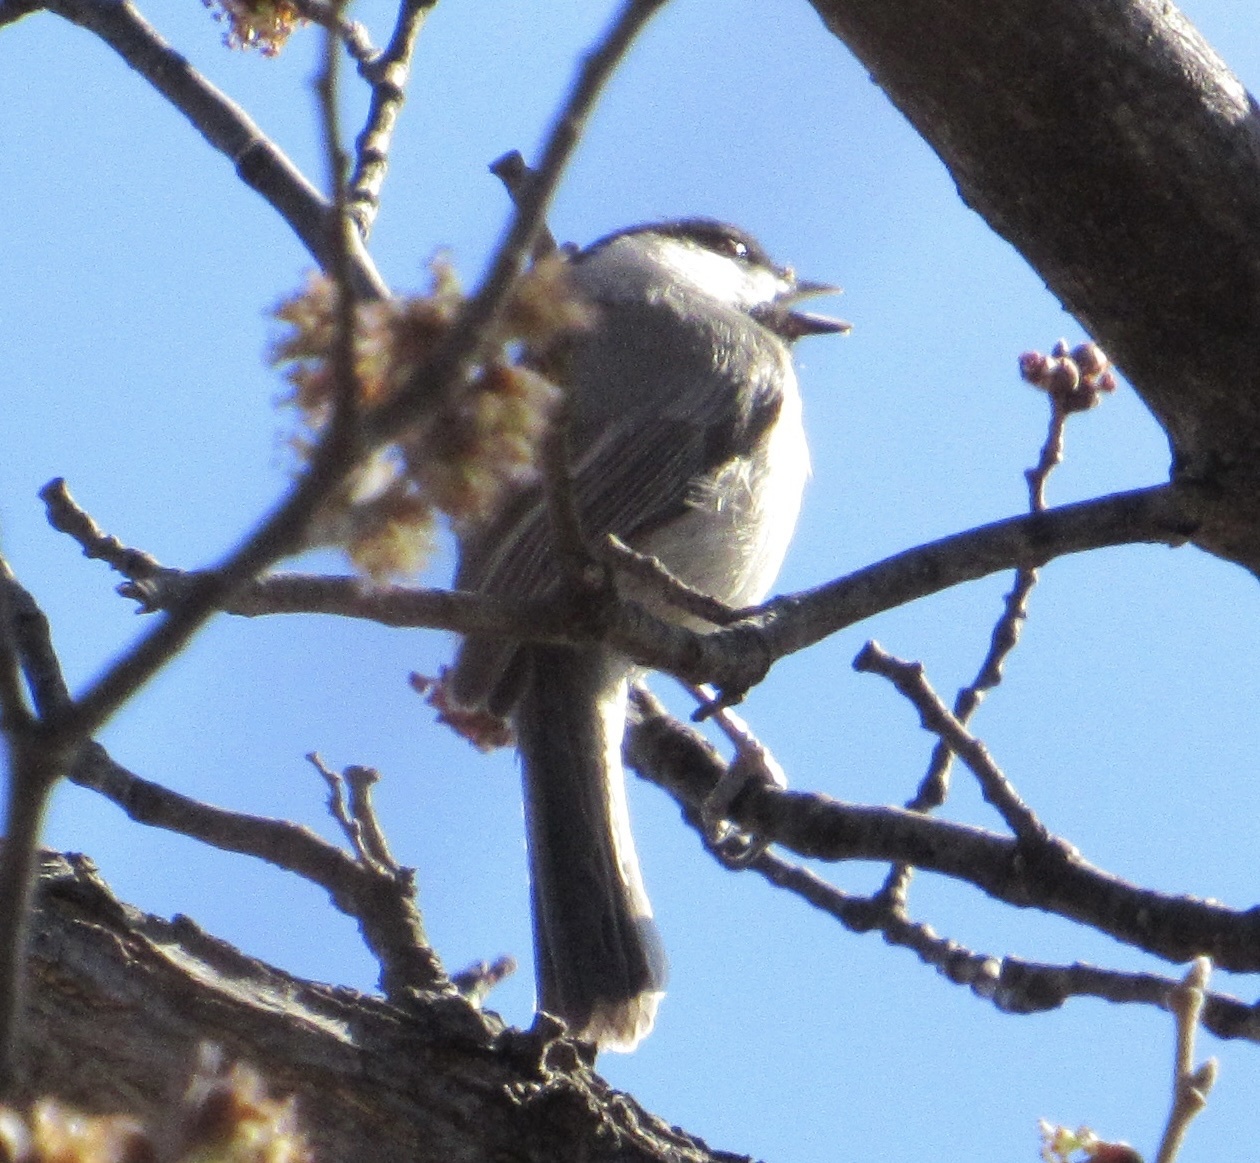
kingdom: Animalia
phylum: Chordata
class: Aves
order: Passeriformes
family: Paridae
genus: Poecile
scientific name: Poecile carolinensis
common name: Carolina chickadee
